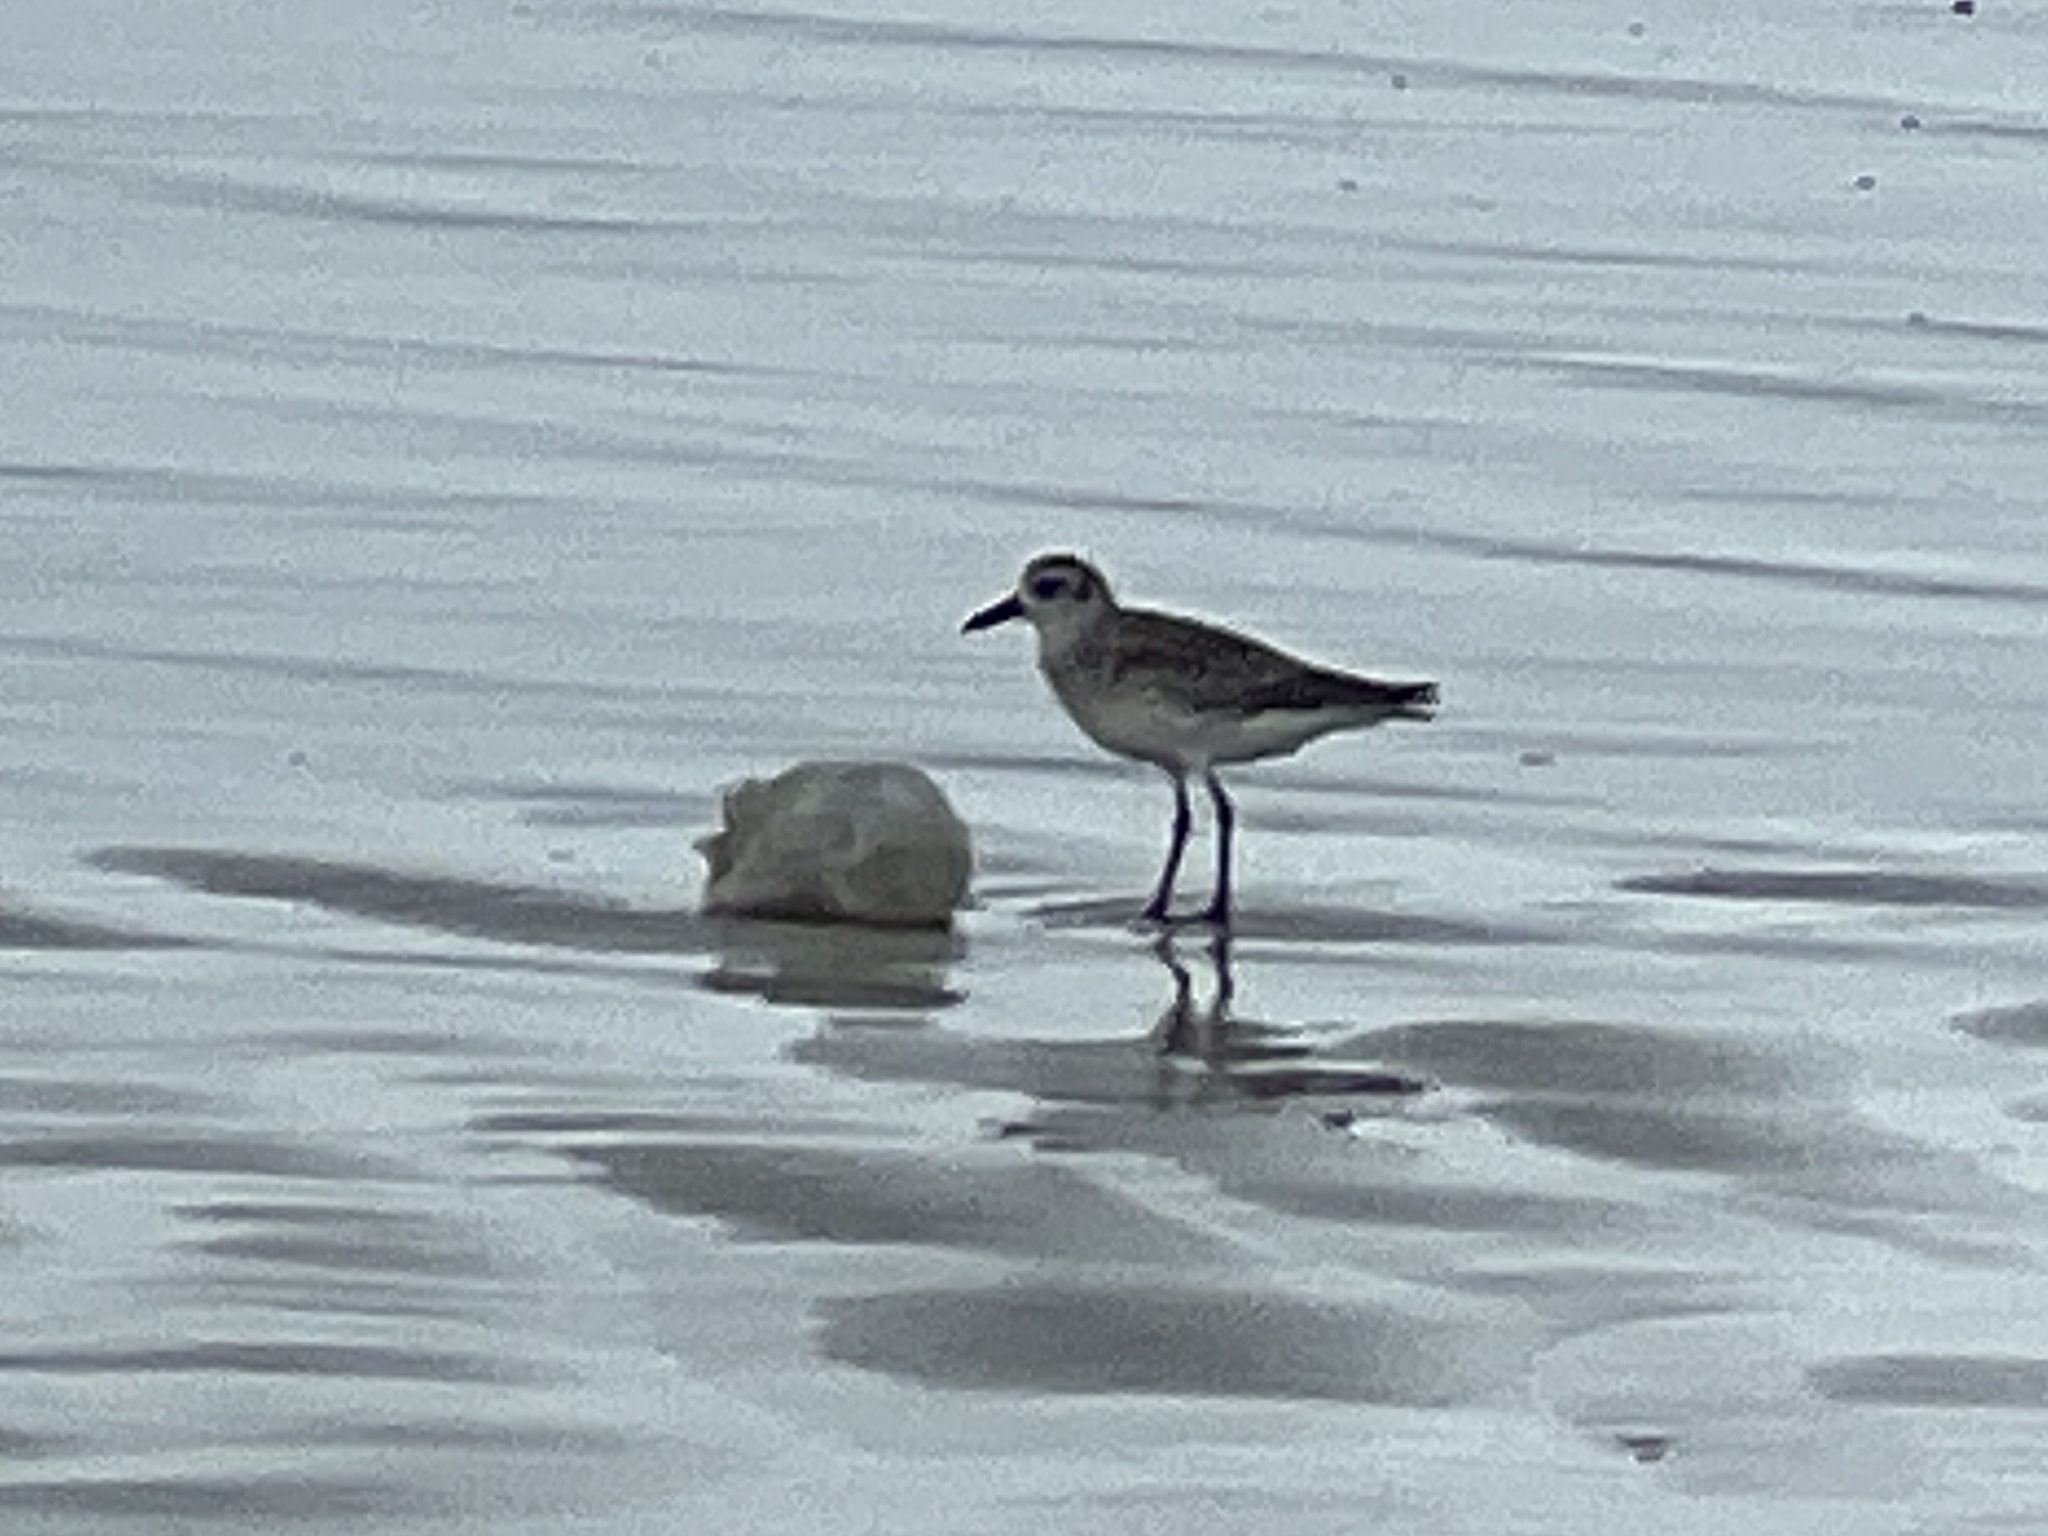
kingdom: Animalia
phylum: Chordata
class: Aves
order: Charadriiformes
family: Charadriidae
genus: Pluvialis
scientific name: Pluvialis squatarola
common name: Grey plover
